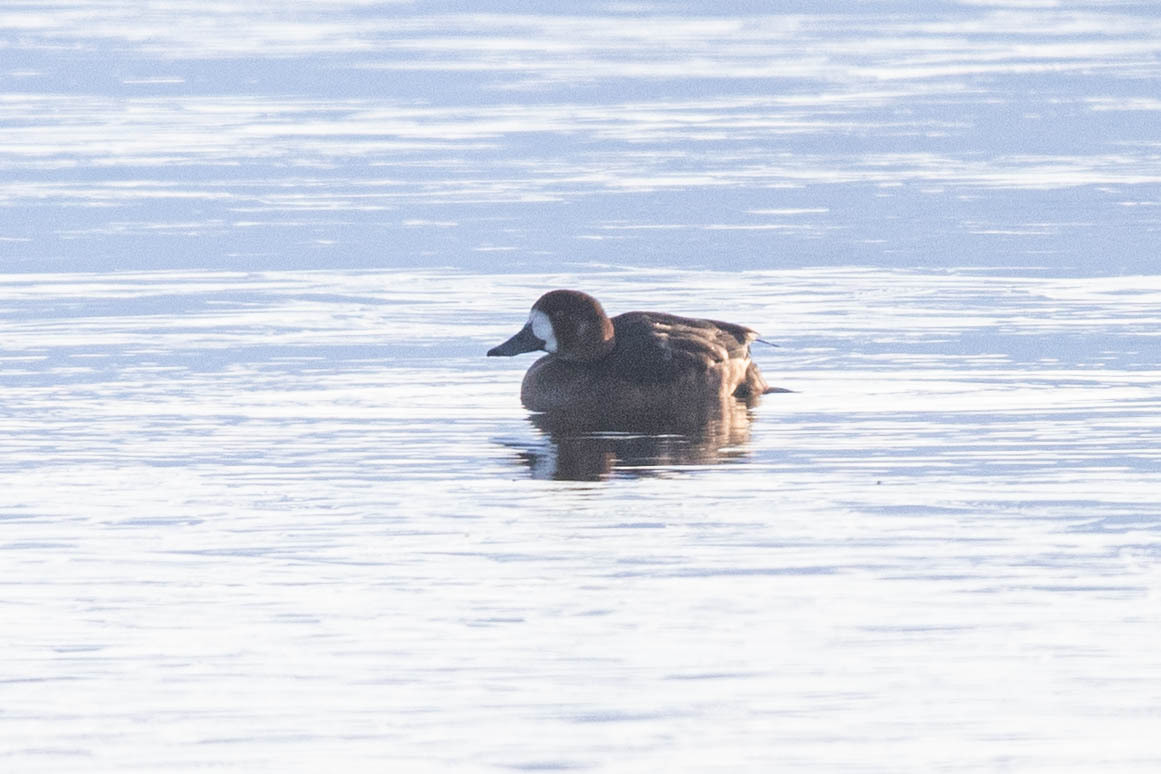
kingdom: Animalia
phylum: Chordata
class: Aves
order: Anseriformes
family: Anatidae
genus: Aythya
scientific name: Aythya marila
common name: Greater scaup
